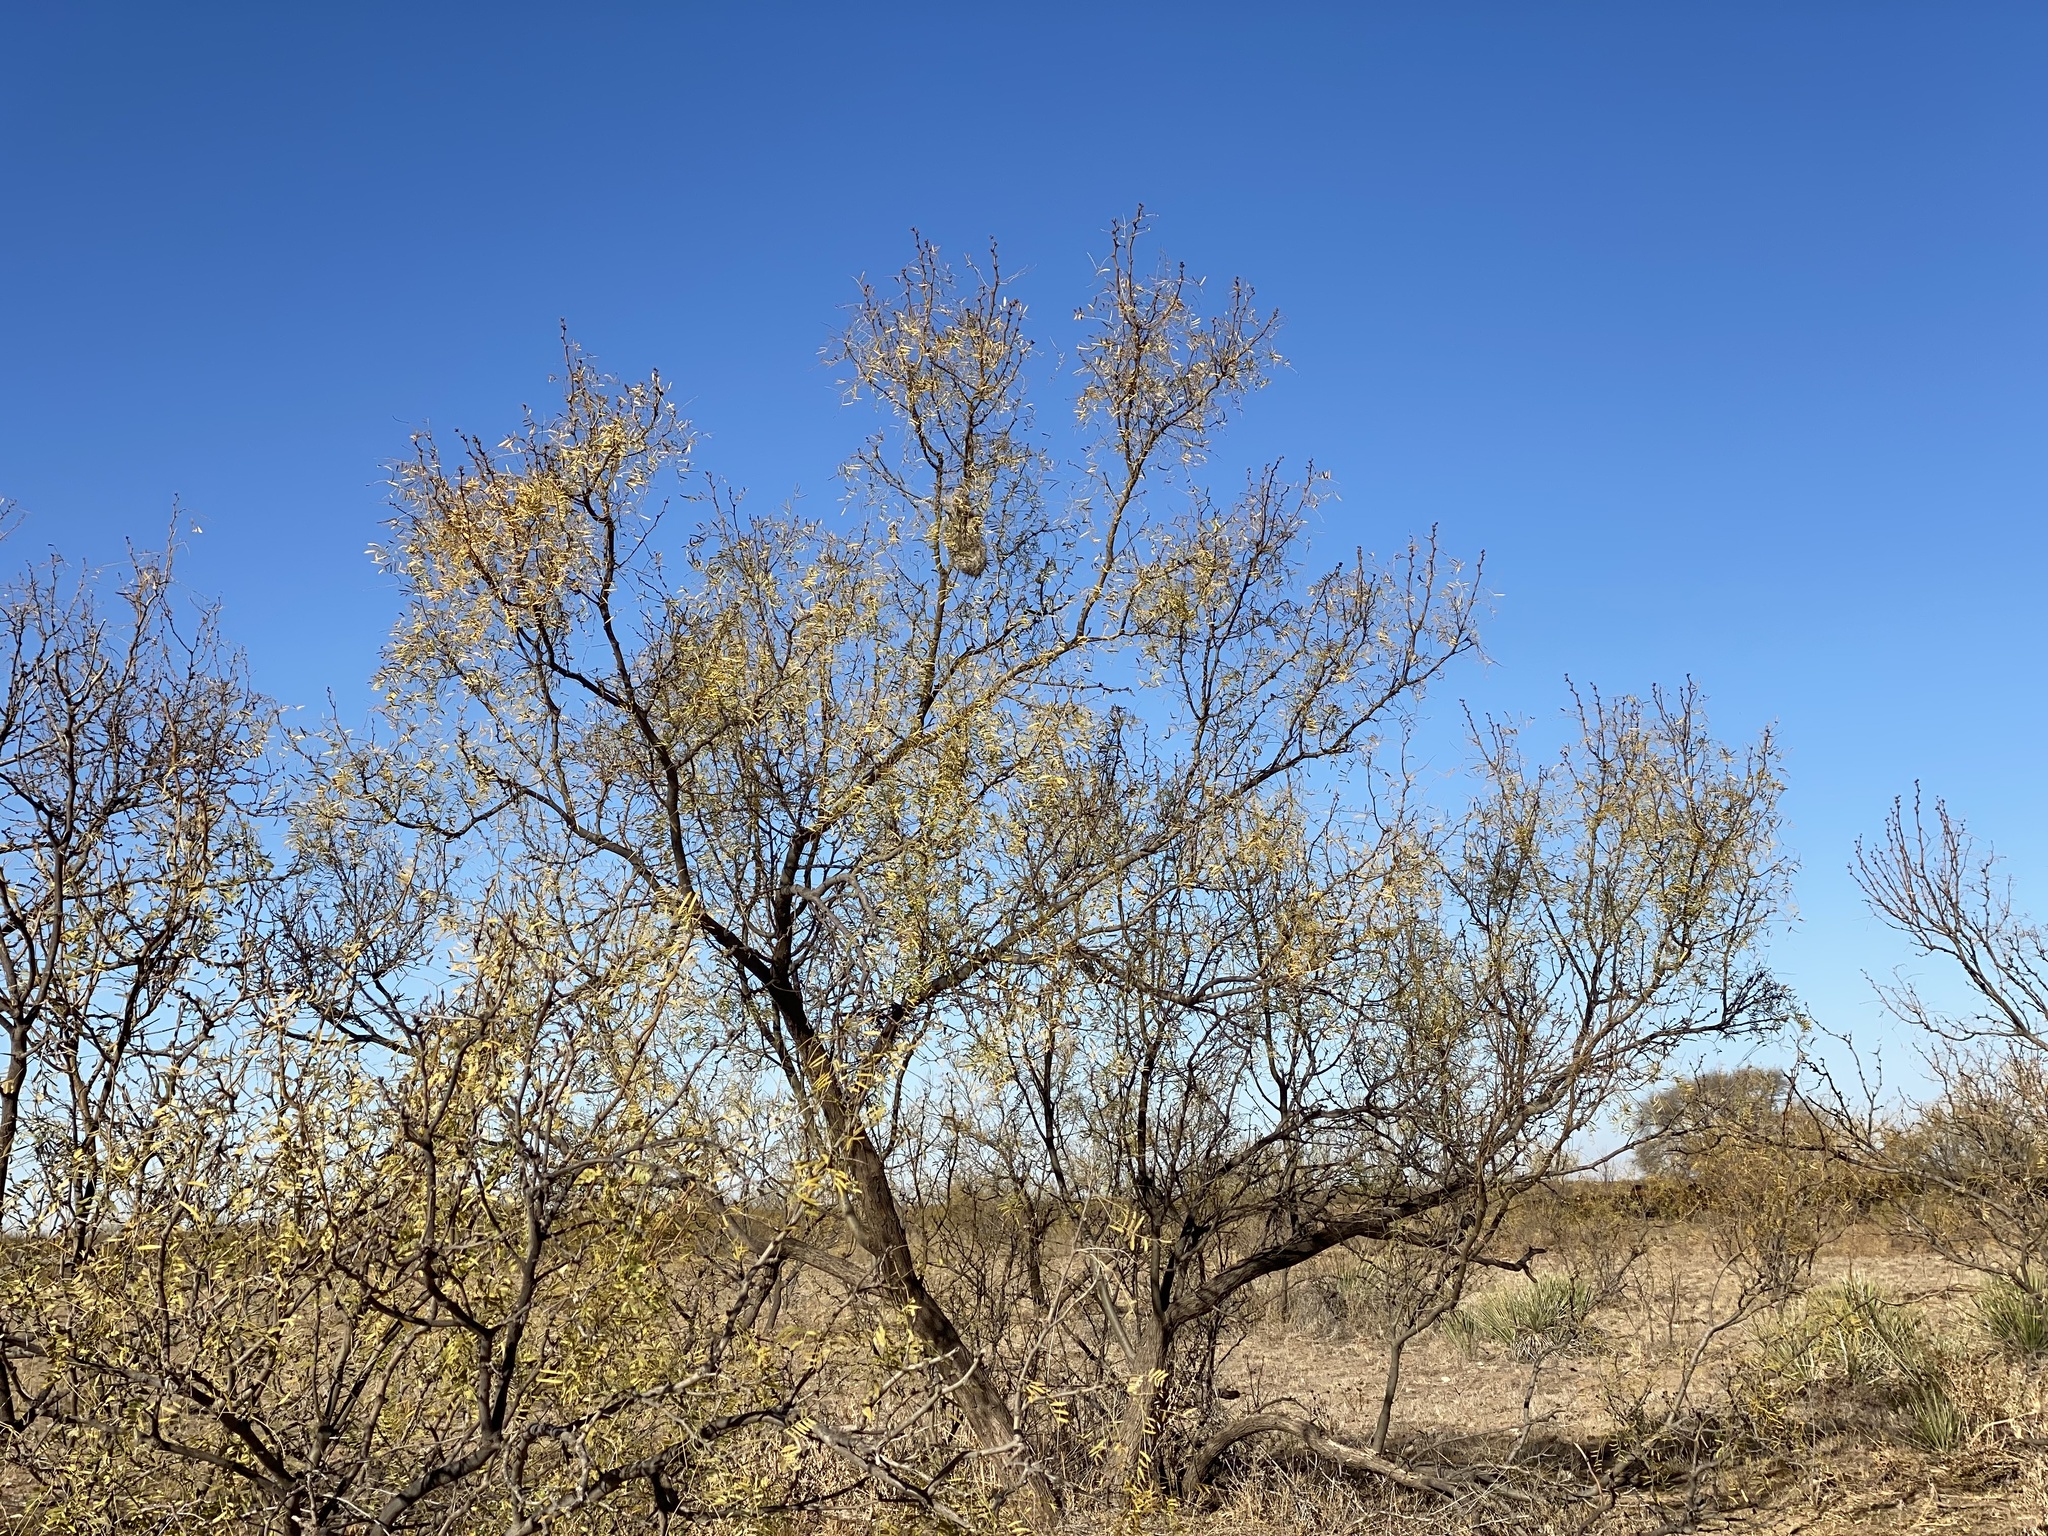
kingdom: Plantae
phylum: Tracheophyta
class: Magnoliopsida
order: Fabales
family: Fabaceae
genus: Prosopis
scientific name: Prosopis glandulosa
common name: Honey mesquite
